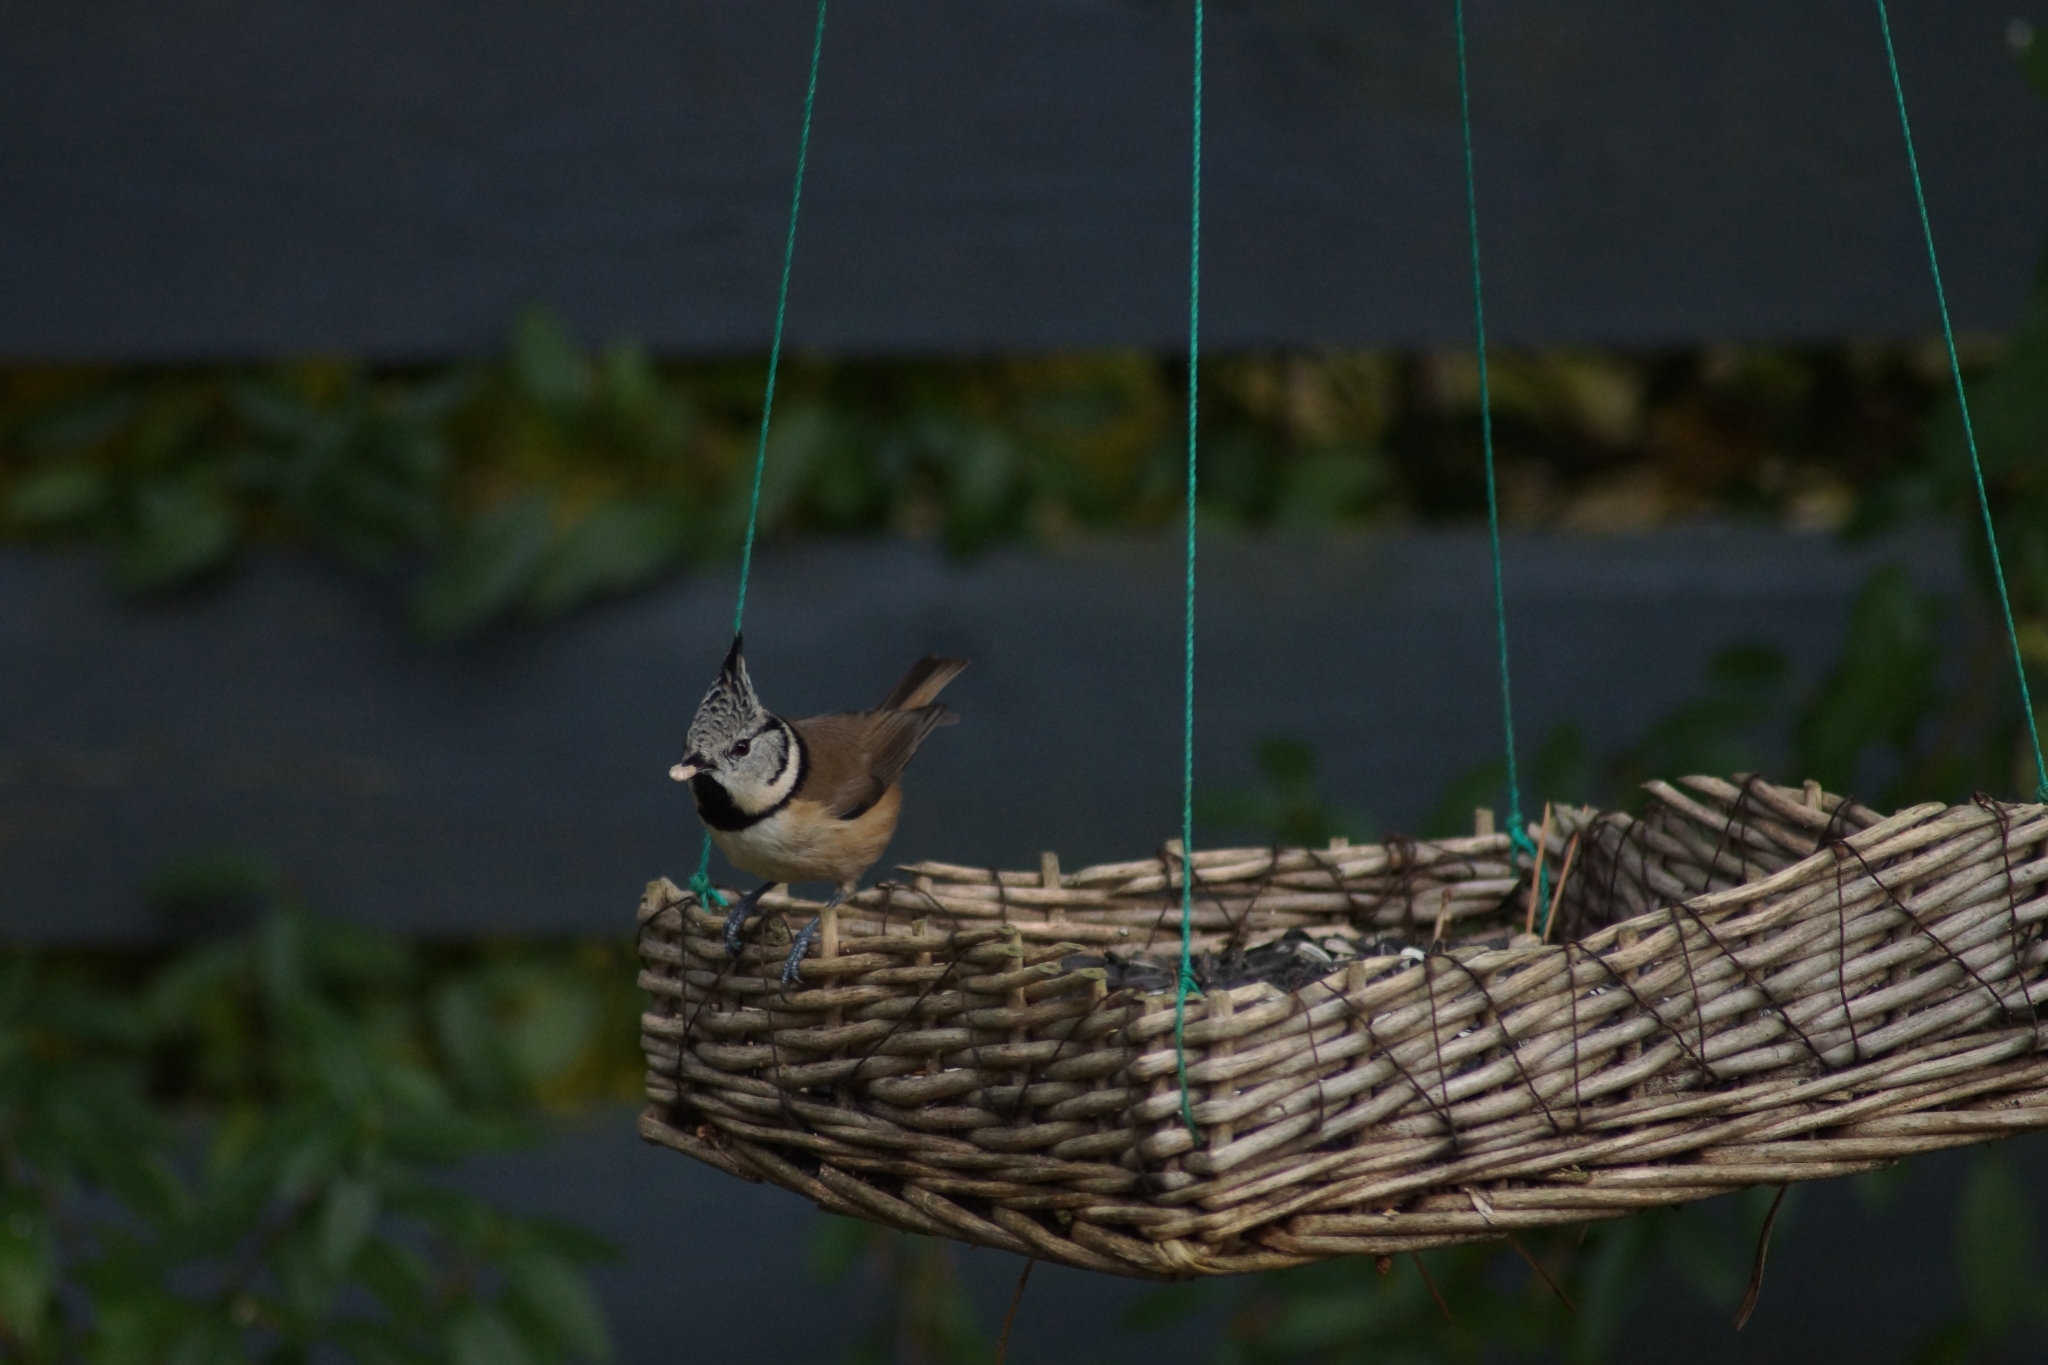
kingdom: Animalia
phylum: Chordata
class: Aves
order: Passeriformes
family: Paridae
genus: Lophophanes
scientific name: Lophophanes cristatus
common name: European crested tit
